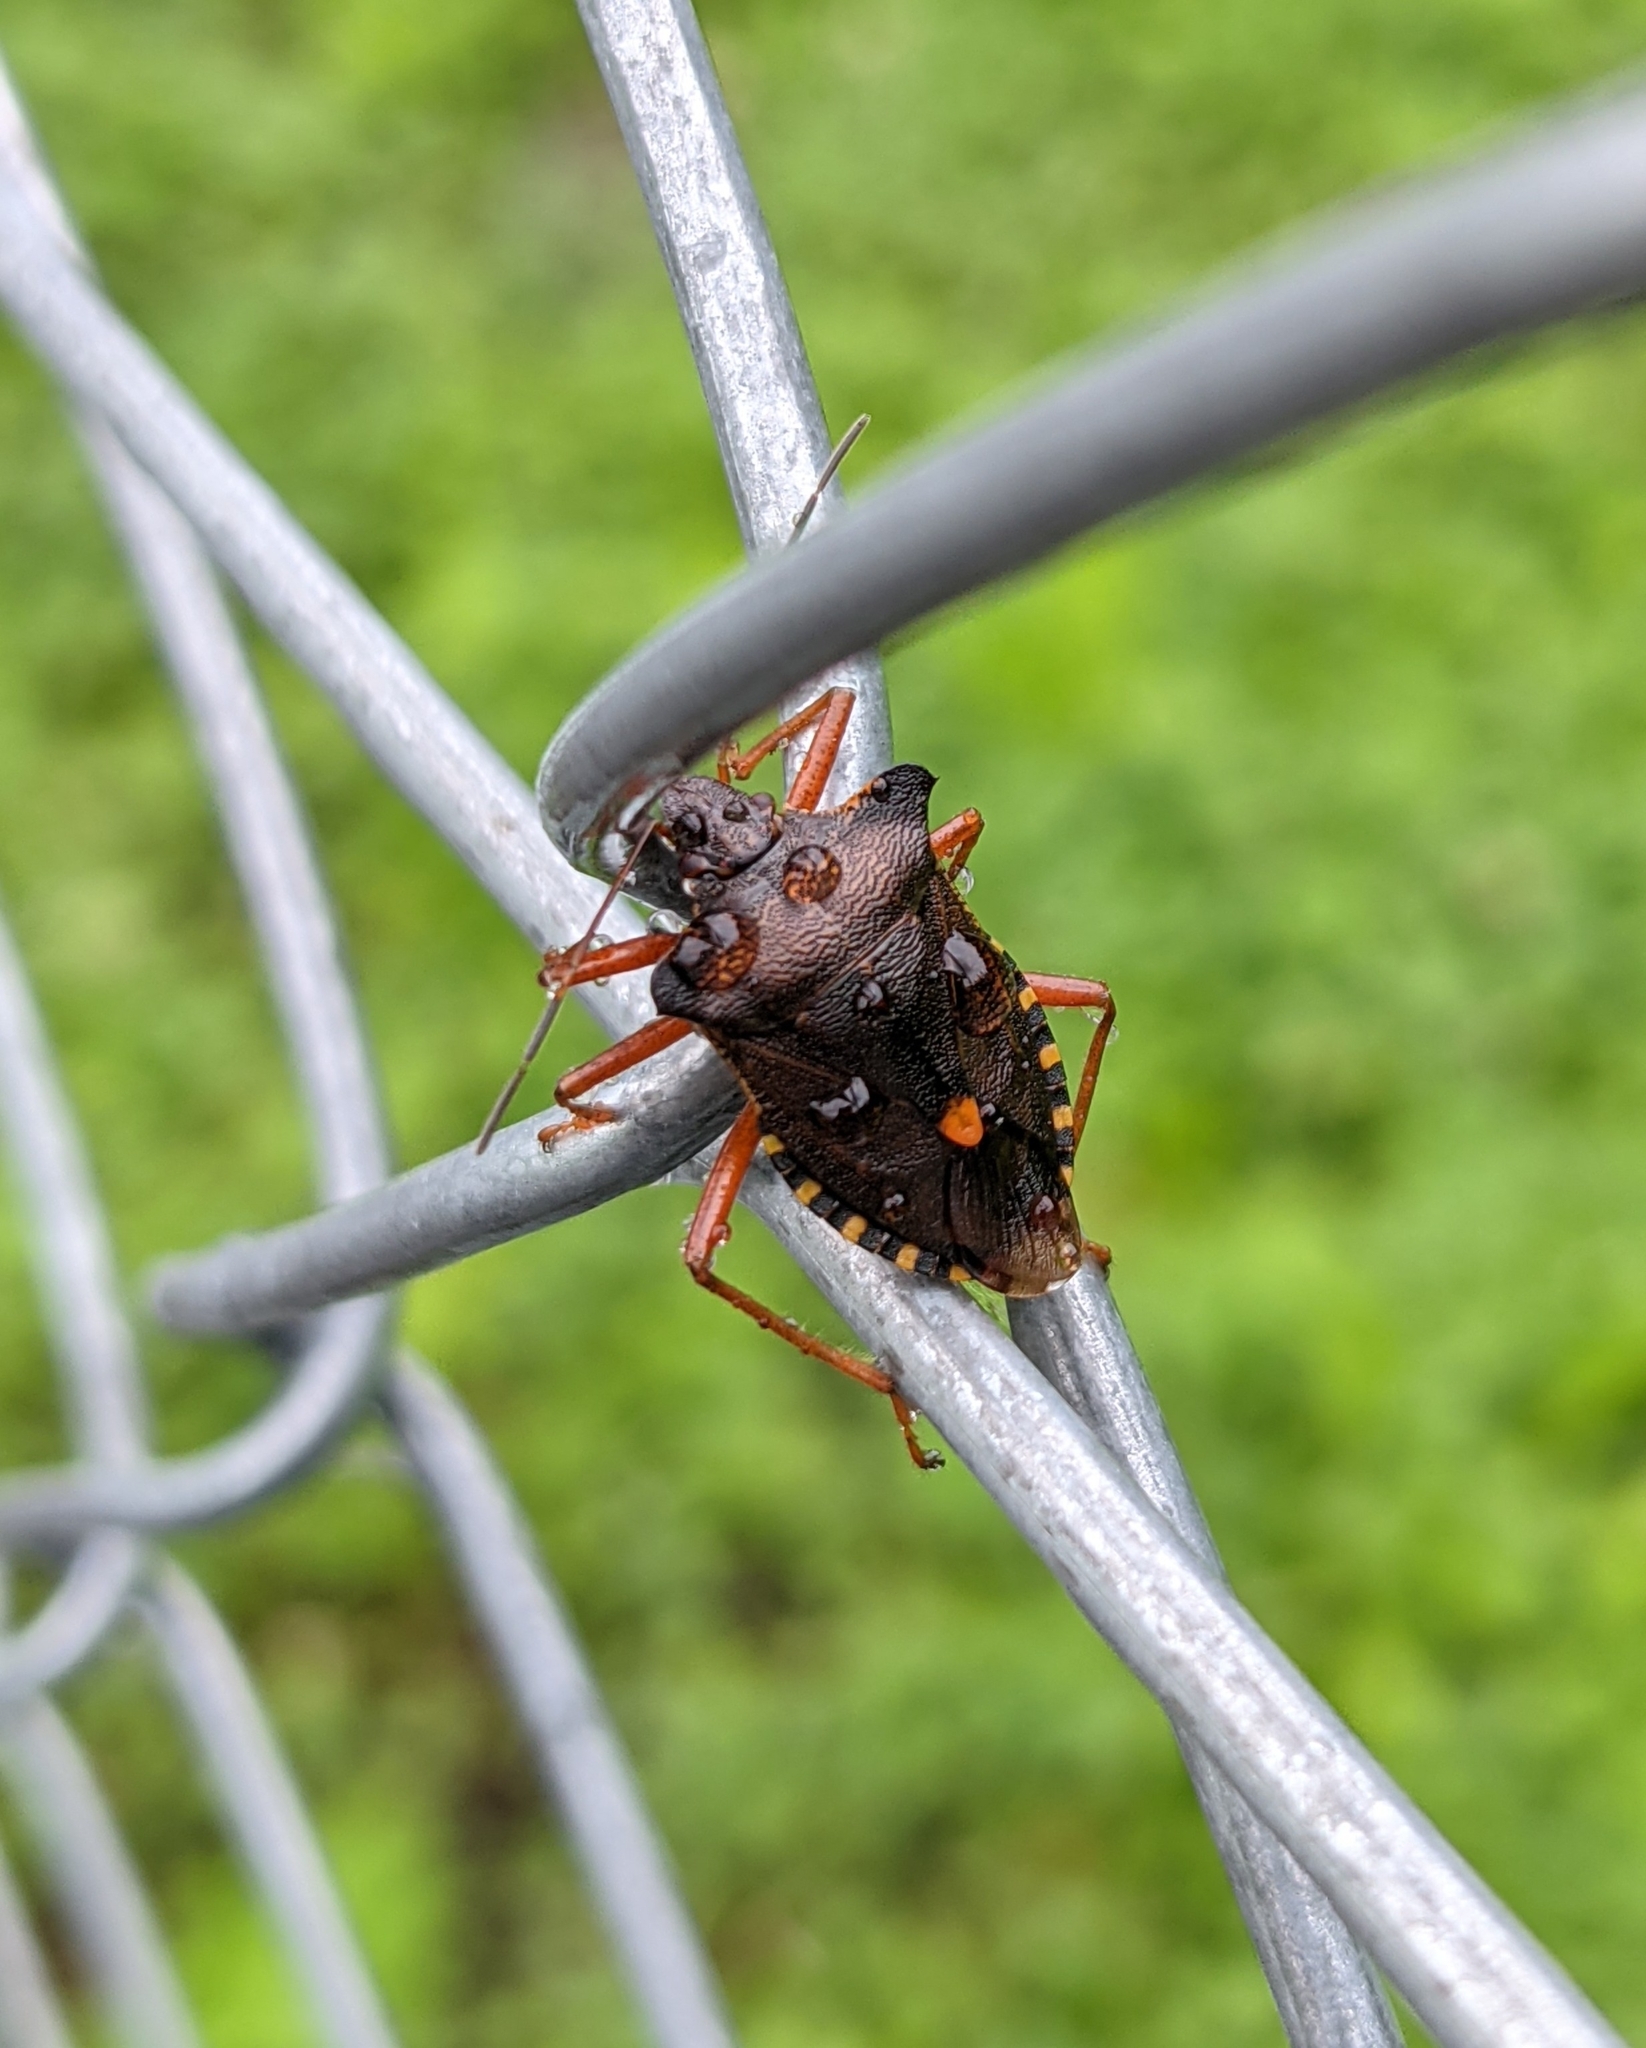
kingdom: Animalia
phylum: Arthropoda
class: Insecta
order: Hemiptera
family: Pentatomidae
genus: Pentatoma
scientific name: Pentatoma rufipes
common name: Forest bug
